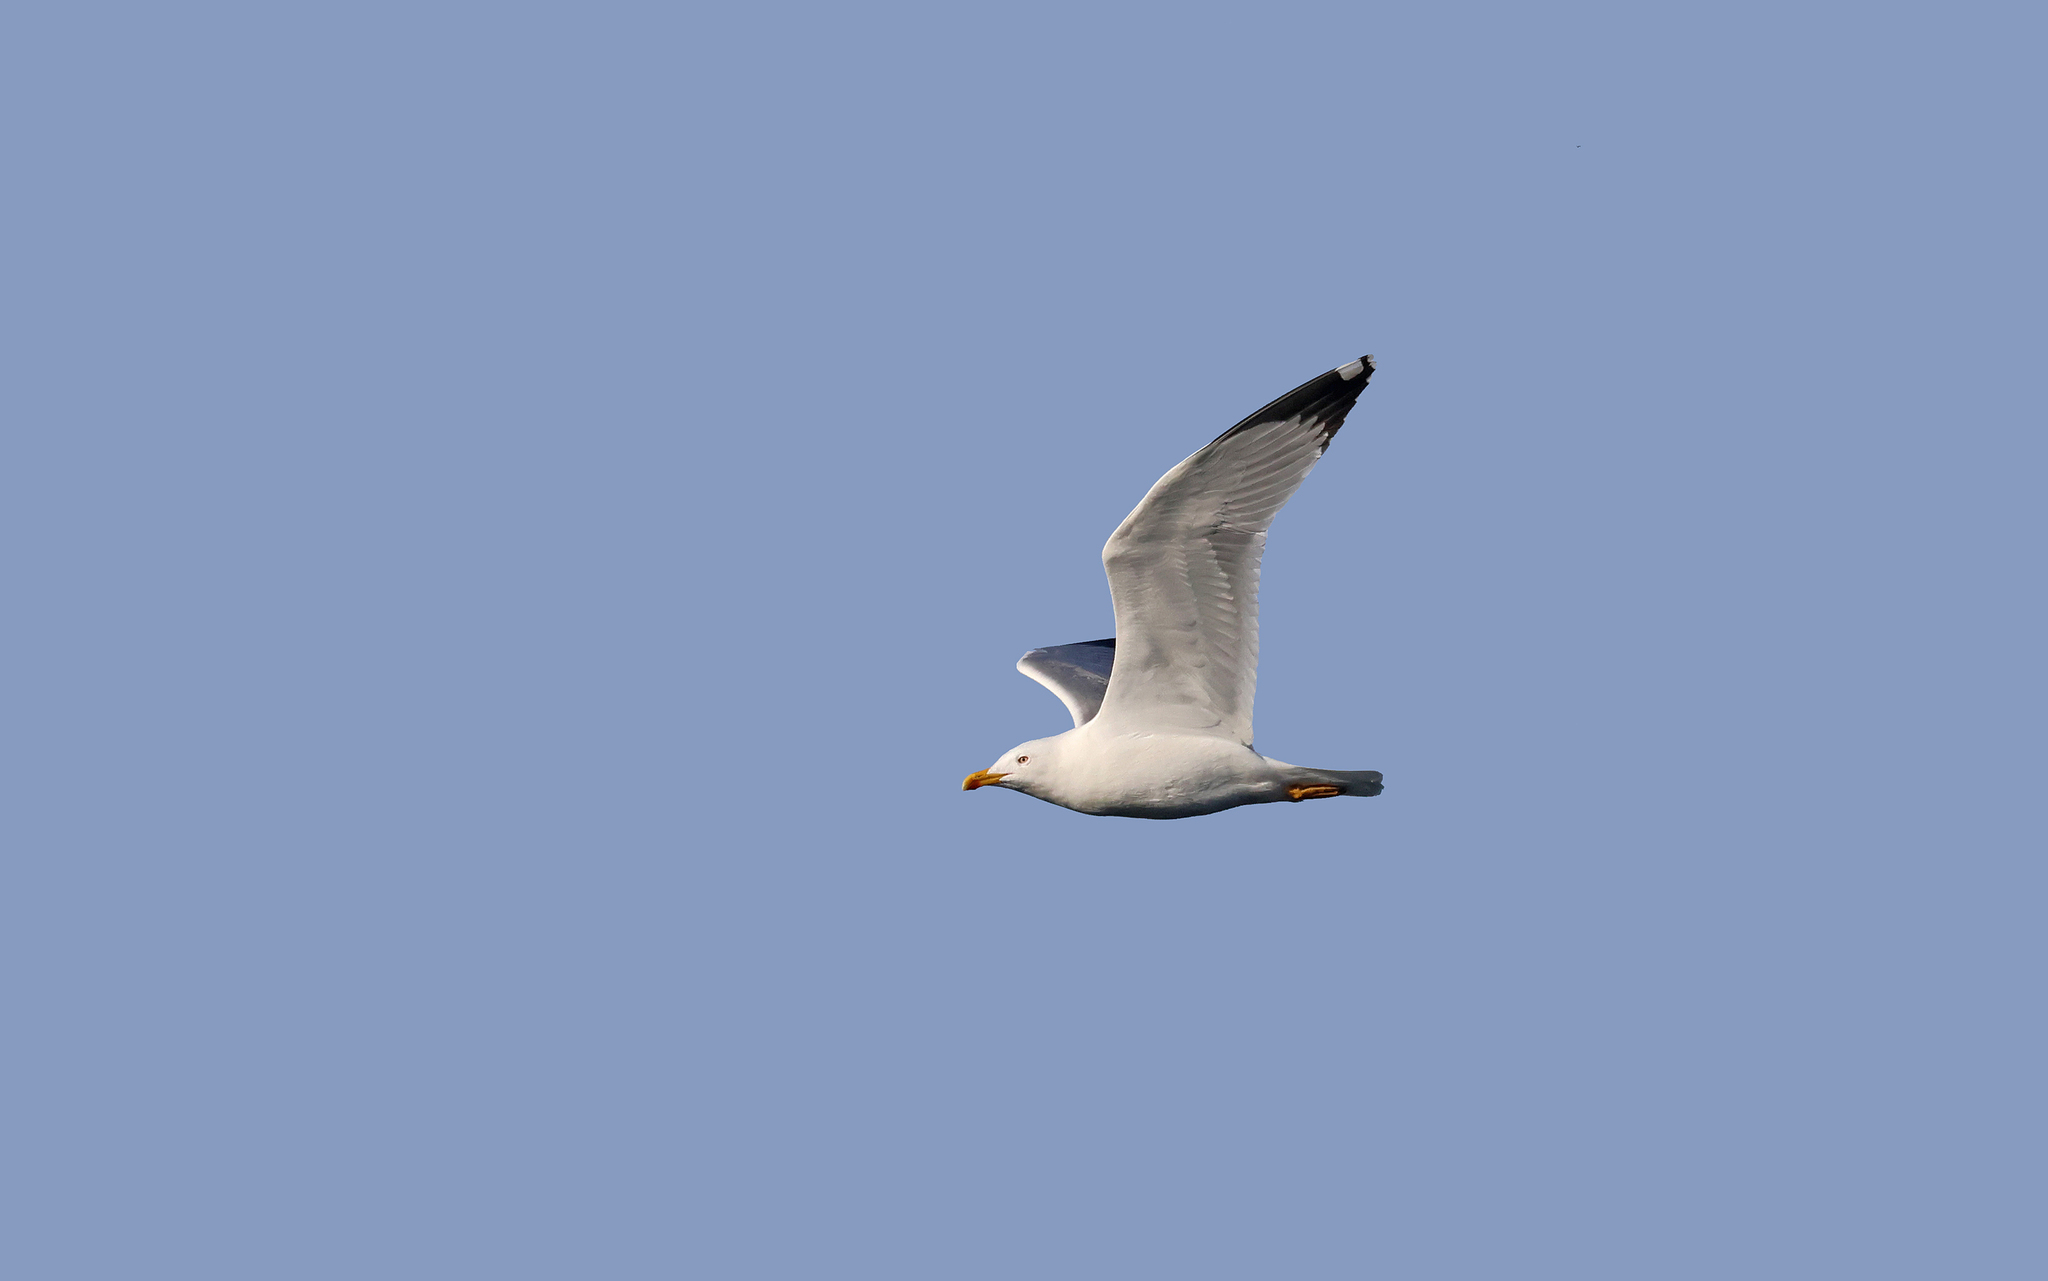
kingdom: Animalia
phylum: Chordata
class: Aves
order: Charadriiformes
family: Laridae
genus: Larus
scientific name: Larus michahellis
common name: Yellow-legged gull
